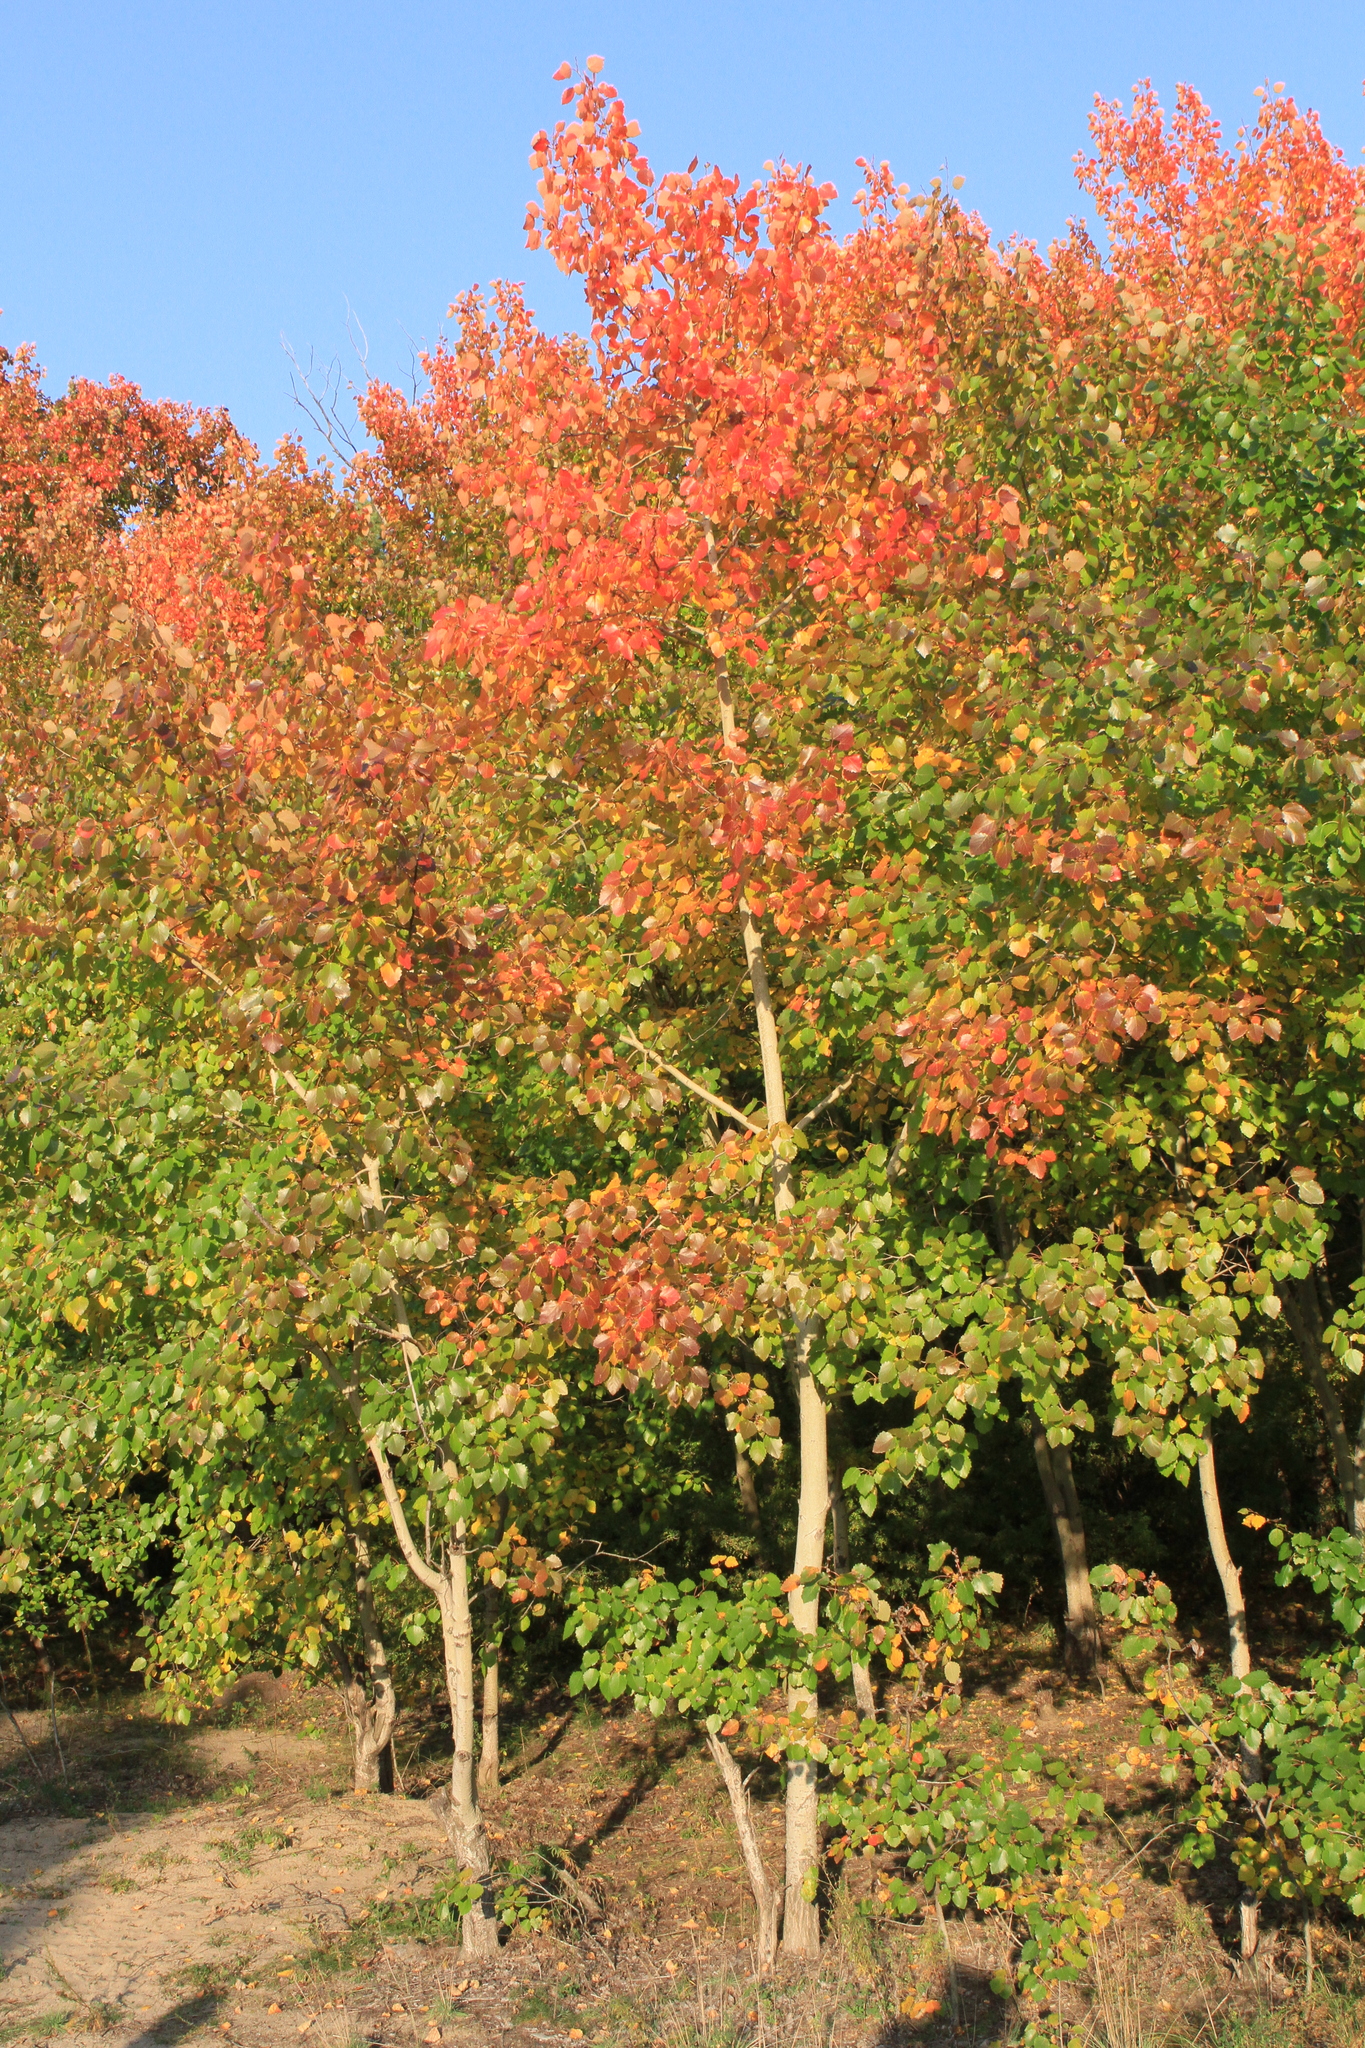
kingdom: Plantae
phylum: Tracheophyta
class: Magnoliopsida
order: Malpighiales
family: Salicaceae
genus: Populus
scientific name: Populus tremula
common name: European aspen
